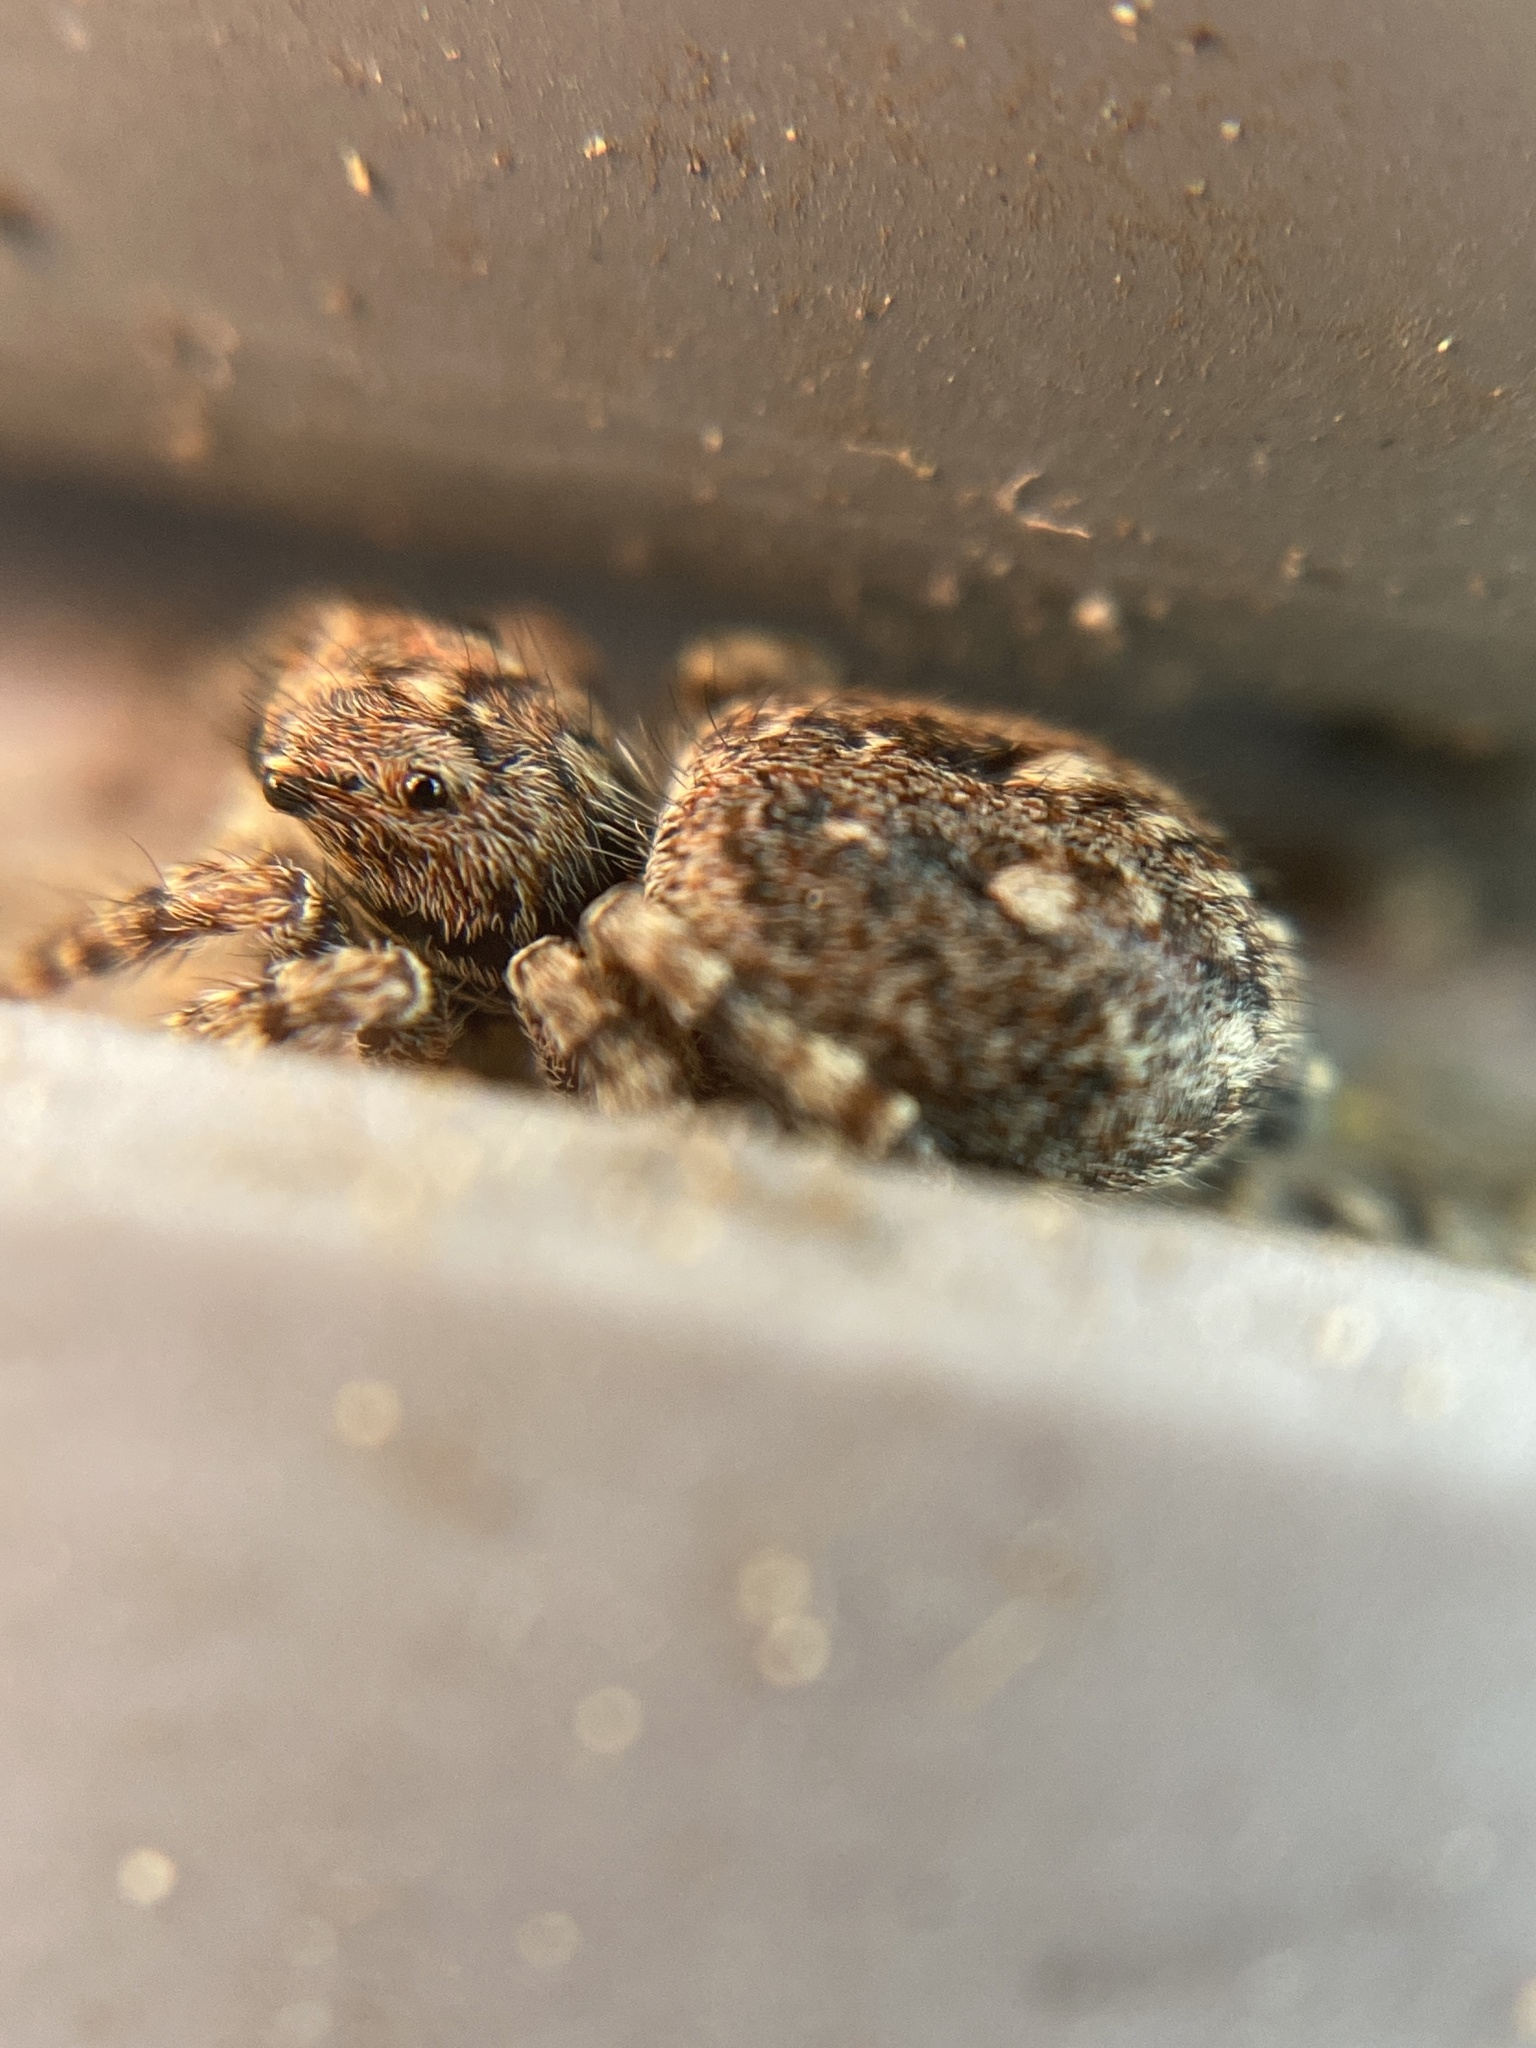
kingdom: Animalia
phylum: Arthropoda
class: Arachnida
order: Araneae
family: Salticidae
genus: Attulus
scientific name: Attulus pubescens
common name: Jumping spider
